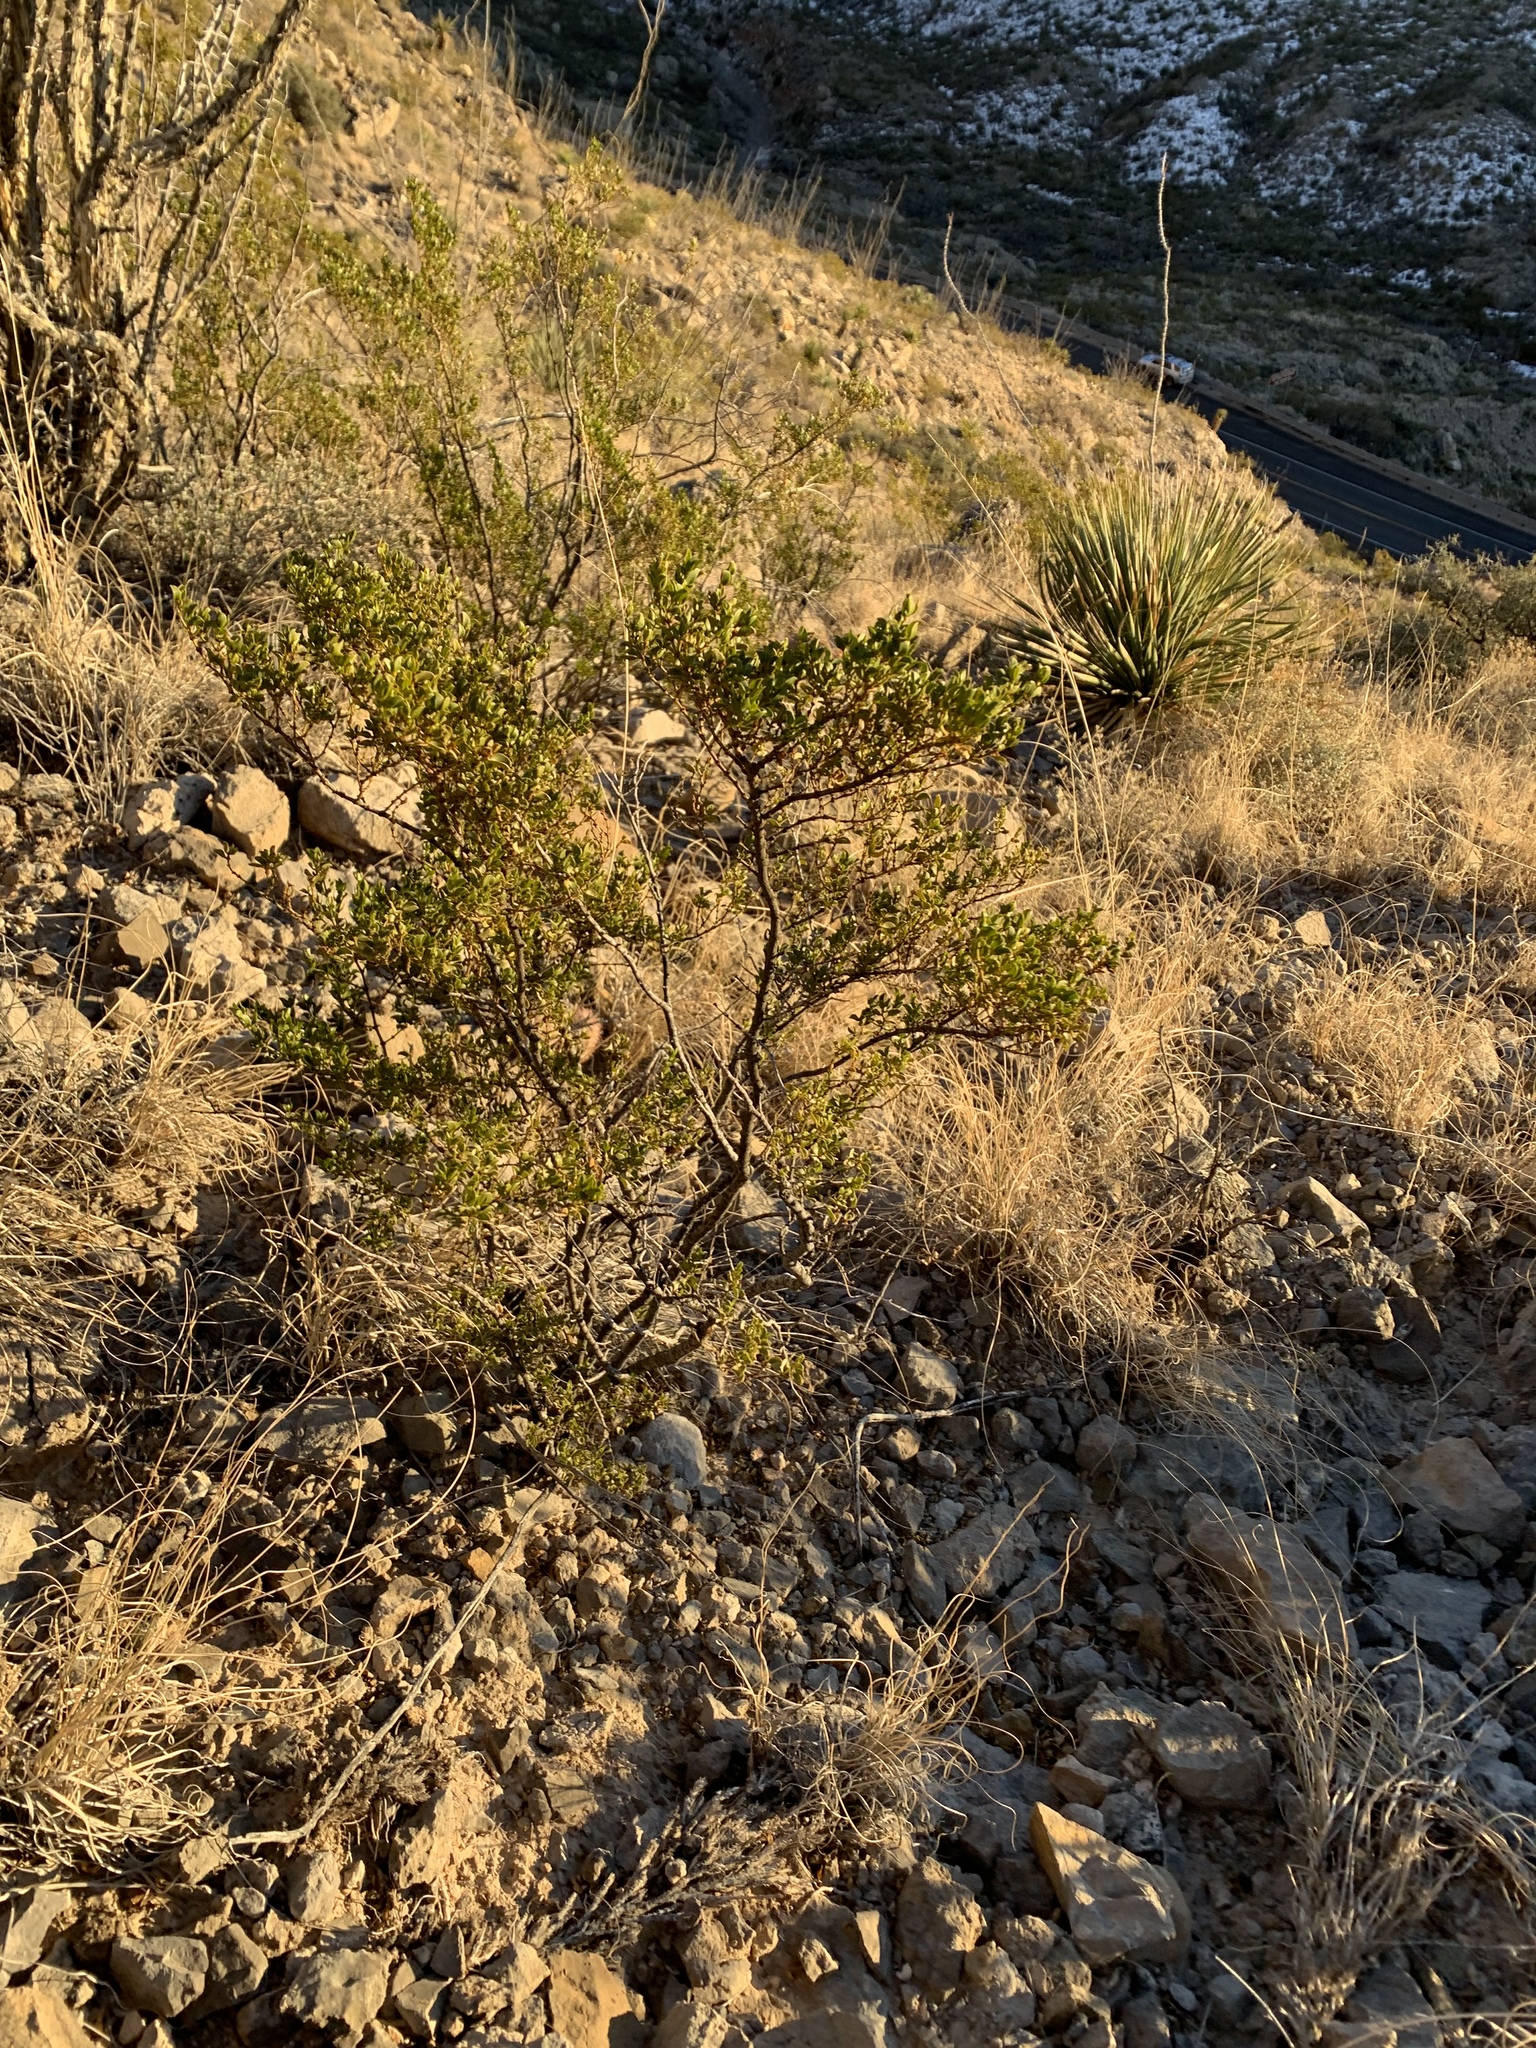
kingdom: Plantae
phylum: Tracheophyta
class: Magnoliopsida
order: Zygophyllales
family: Zygophyllaceae
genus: Larrea
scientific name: Larrea tridentata
